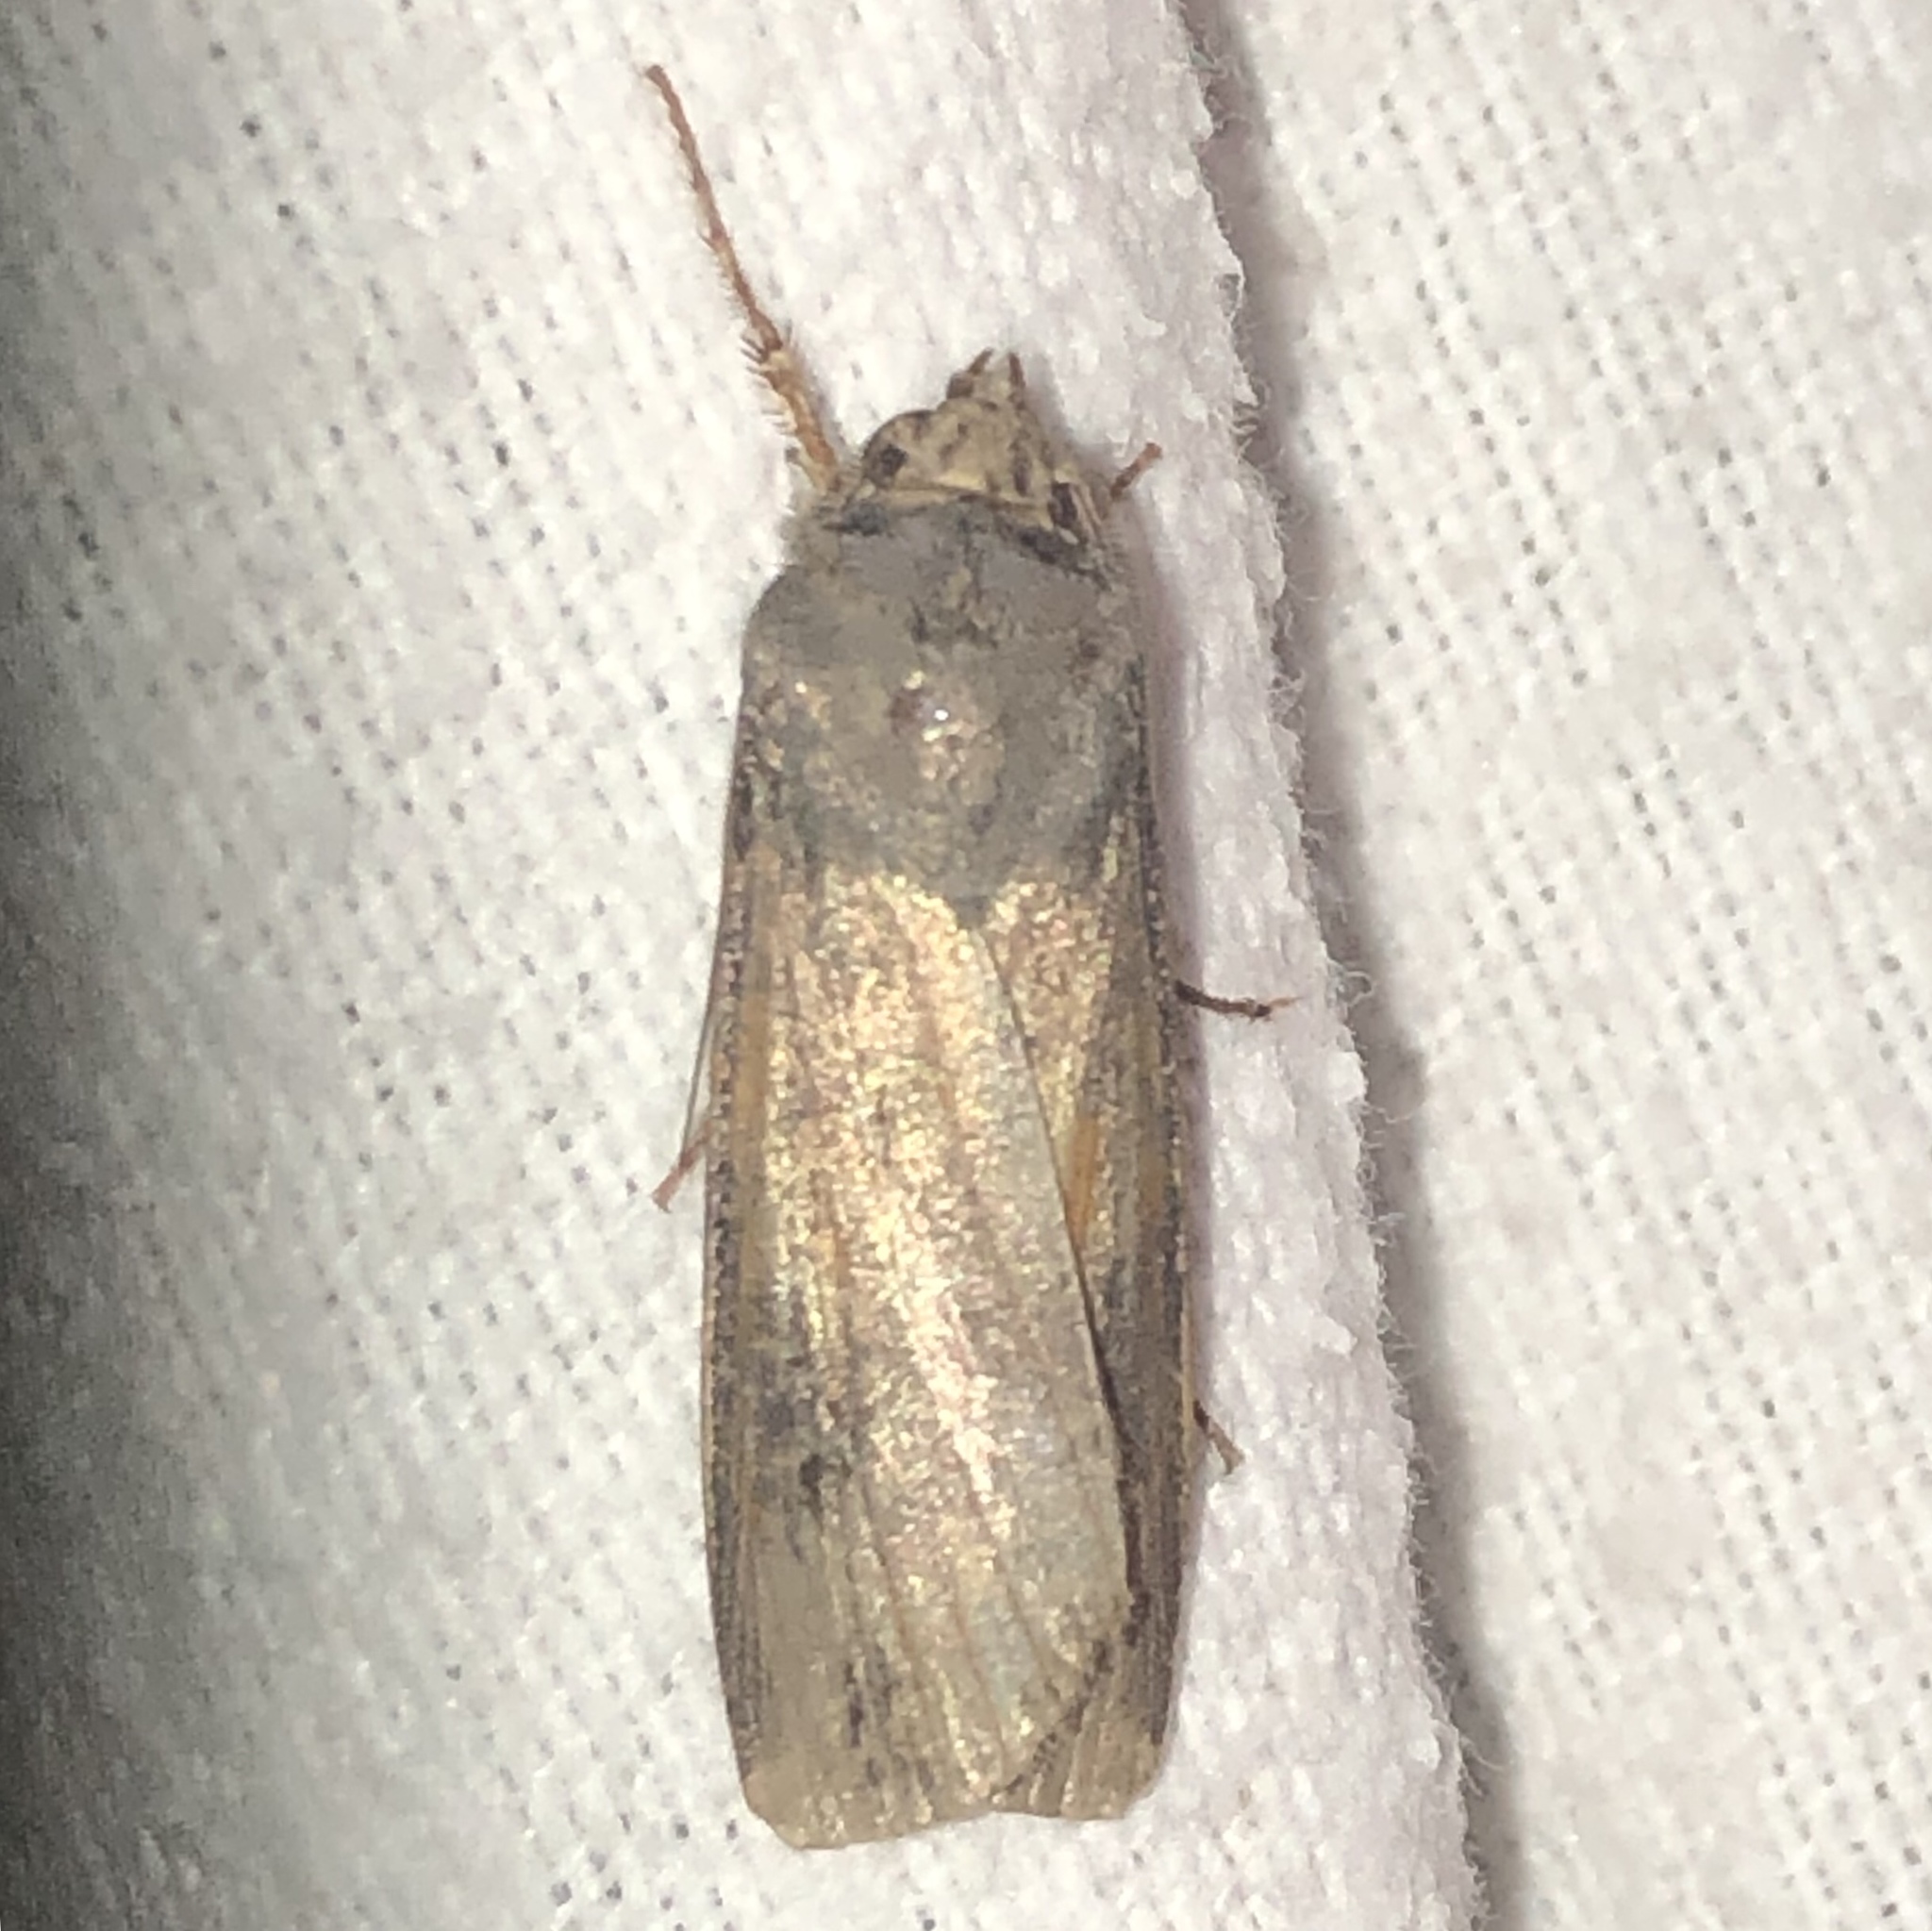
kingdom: Animalia
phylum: Arthropoda
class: Insecta
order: Lepidoptera
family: Noctuidae
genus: Agrotis
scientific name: Agrotis ipsilon
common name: Dark sword-grass
